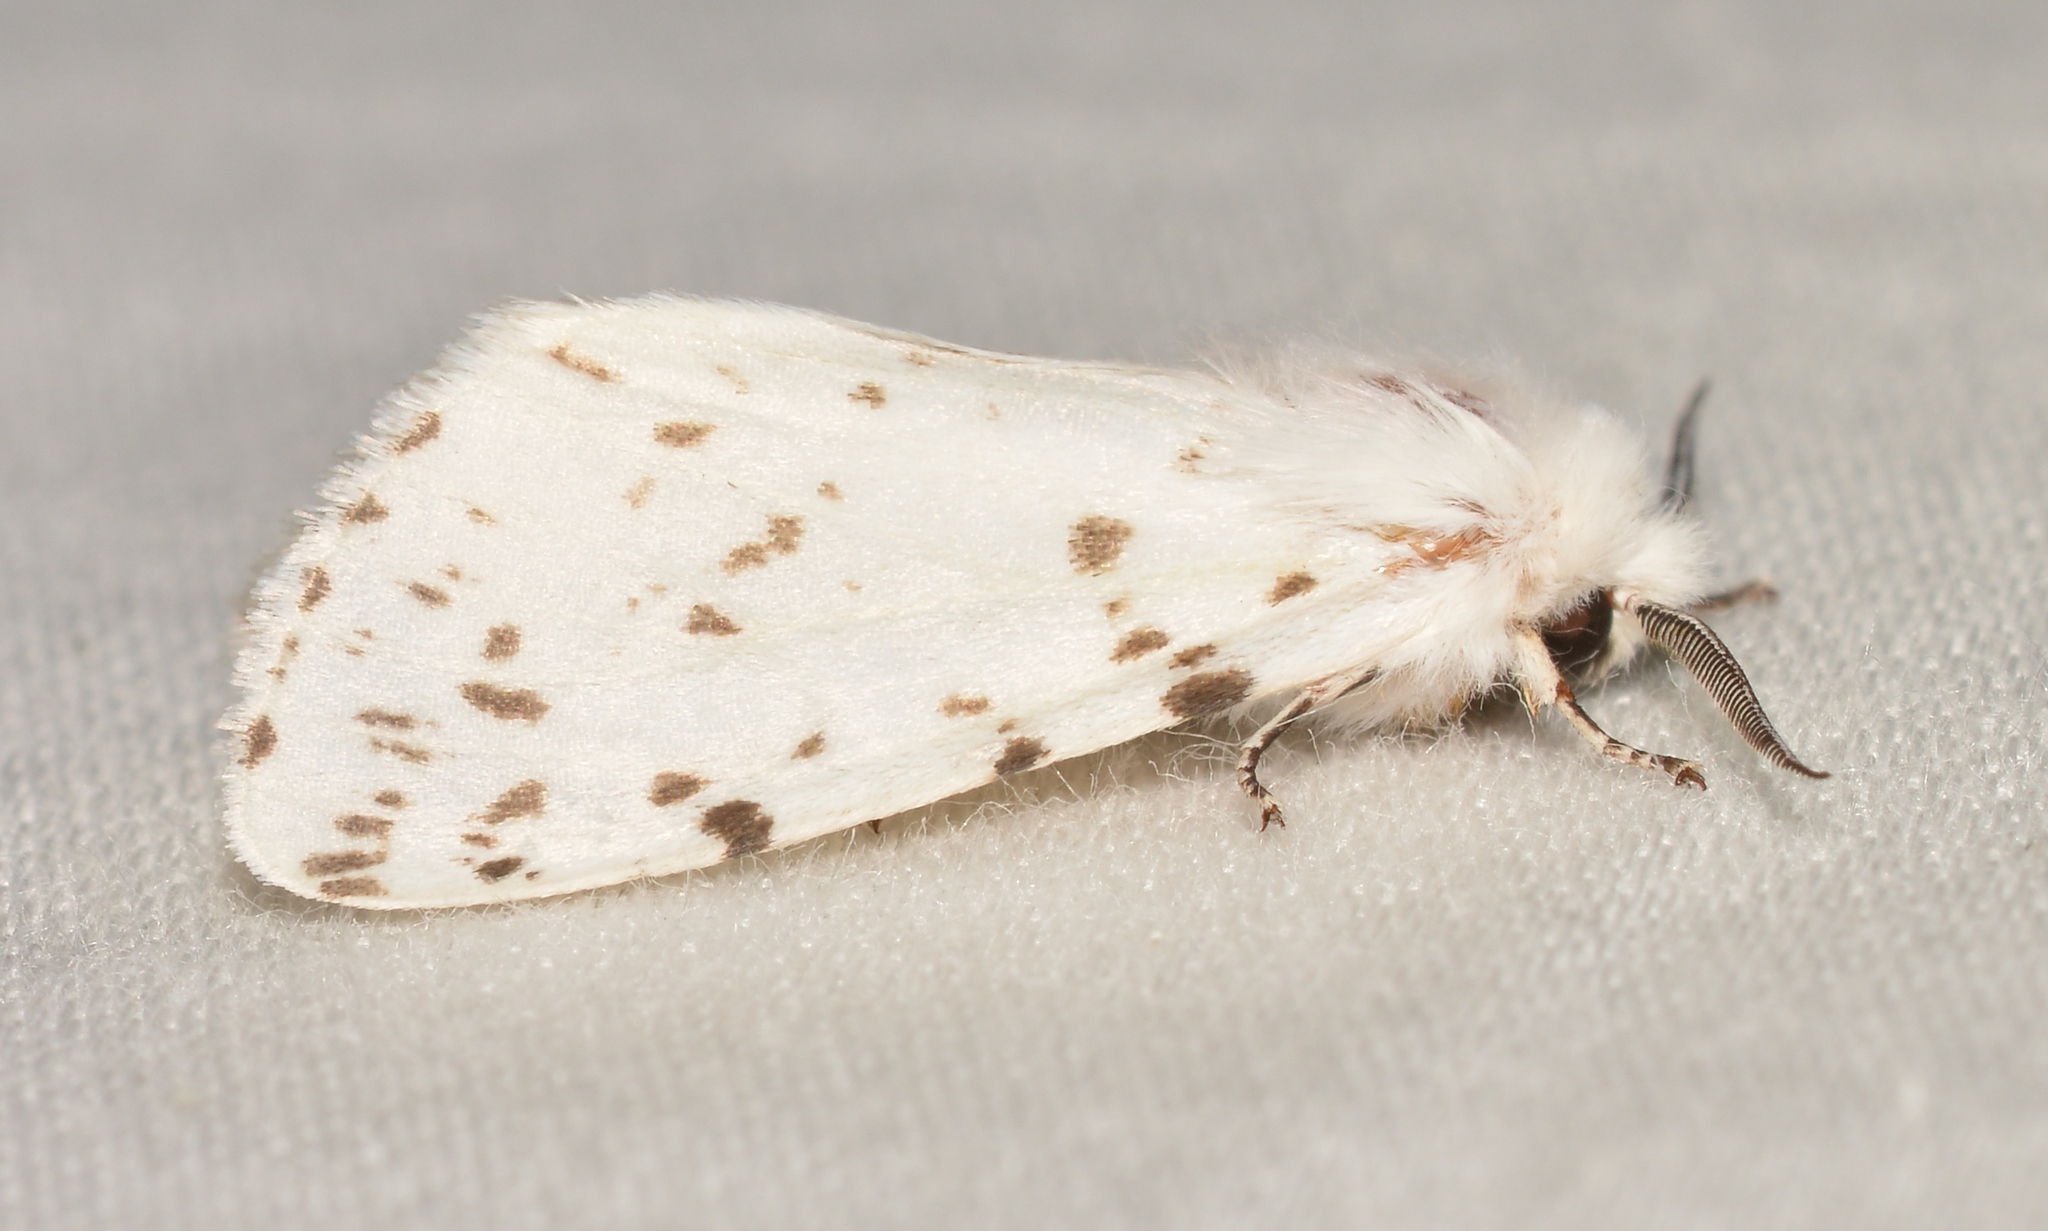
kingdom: Animalia
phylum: Arthropoda
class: Insecta
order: Lepidoptera
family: Erebidae
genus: Hyphantria
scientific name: Hyphantria cunea
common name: American white moth
